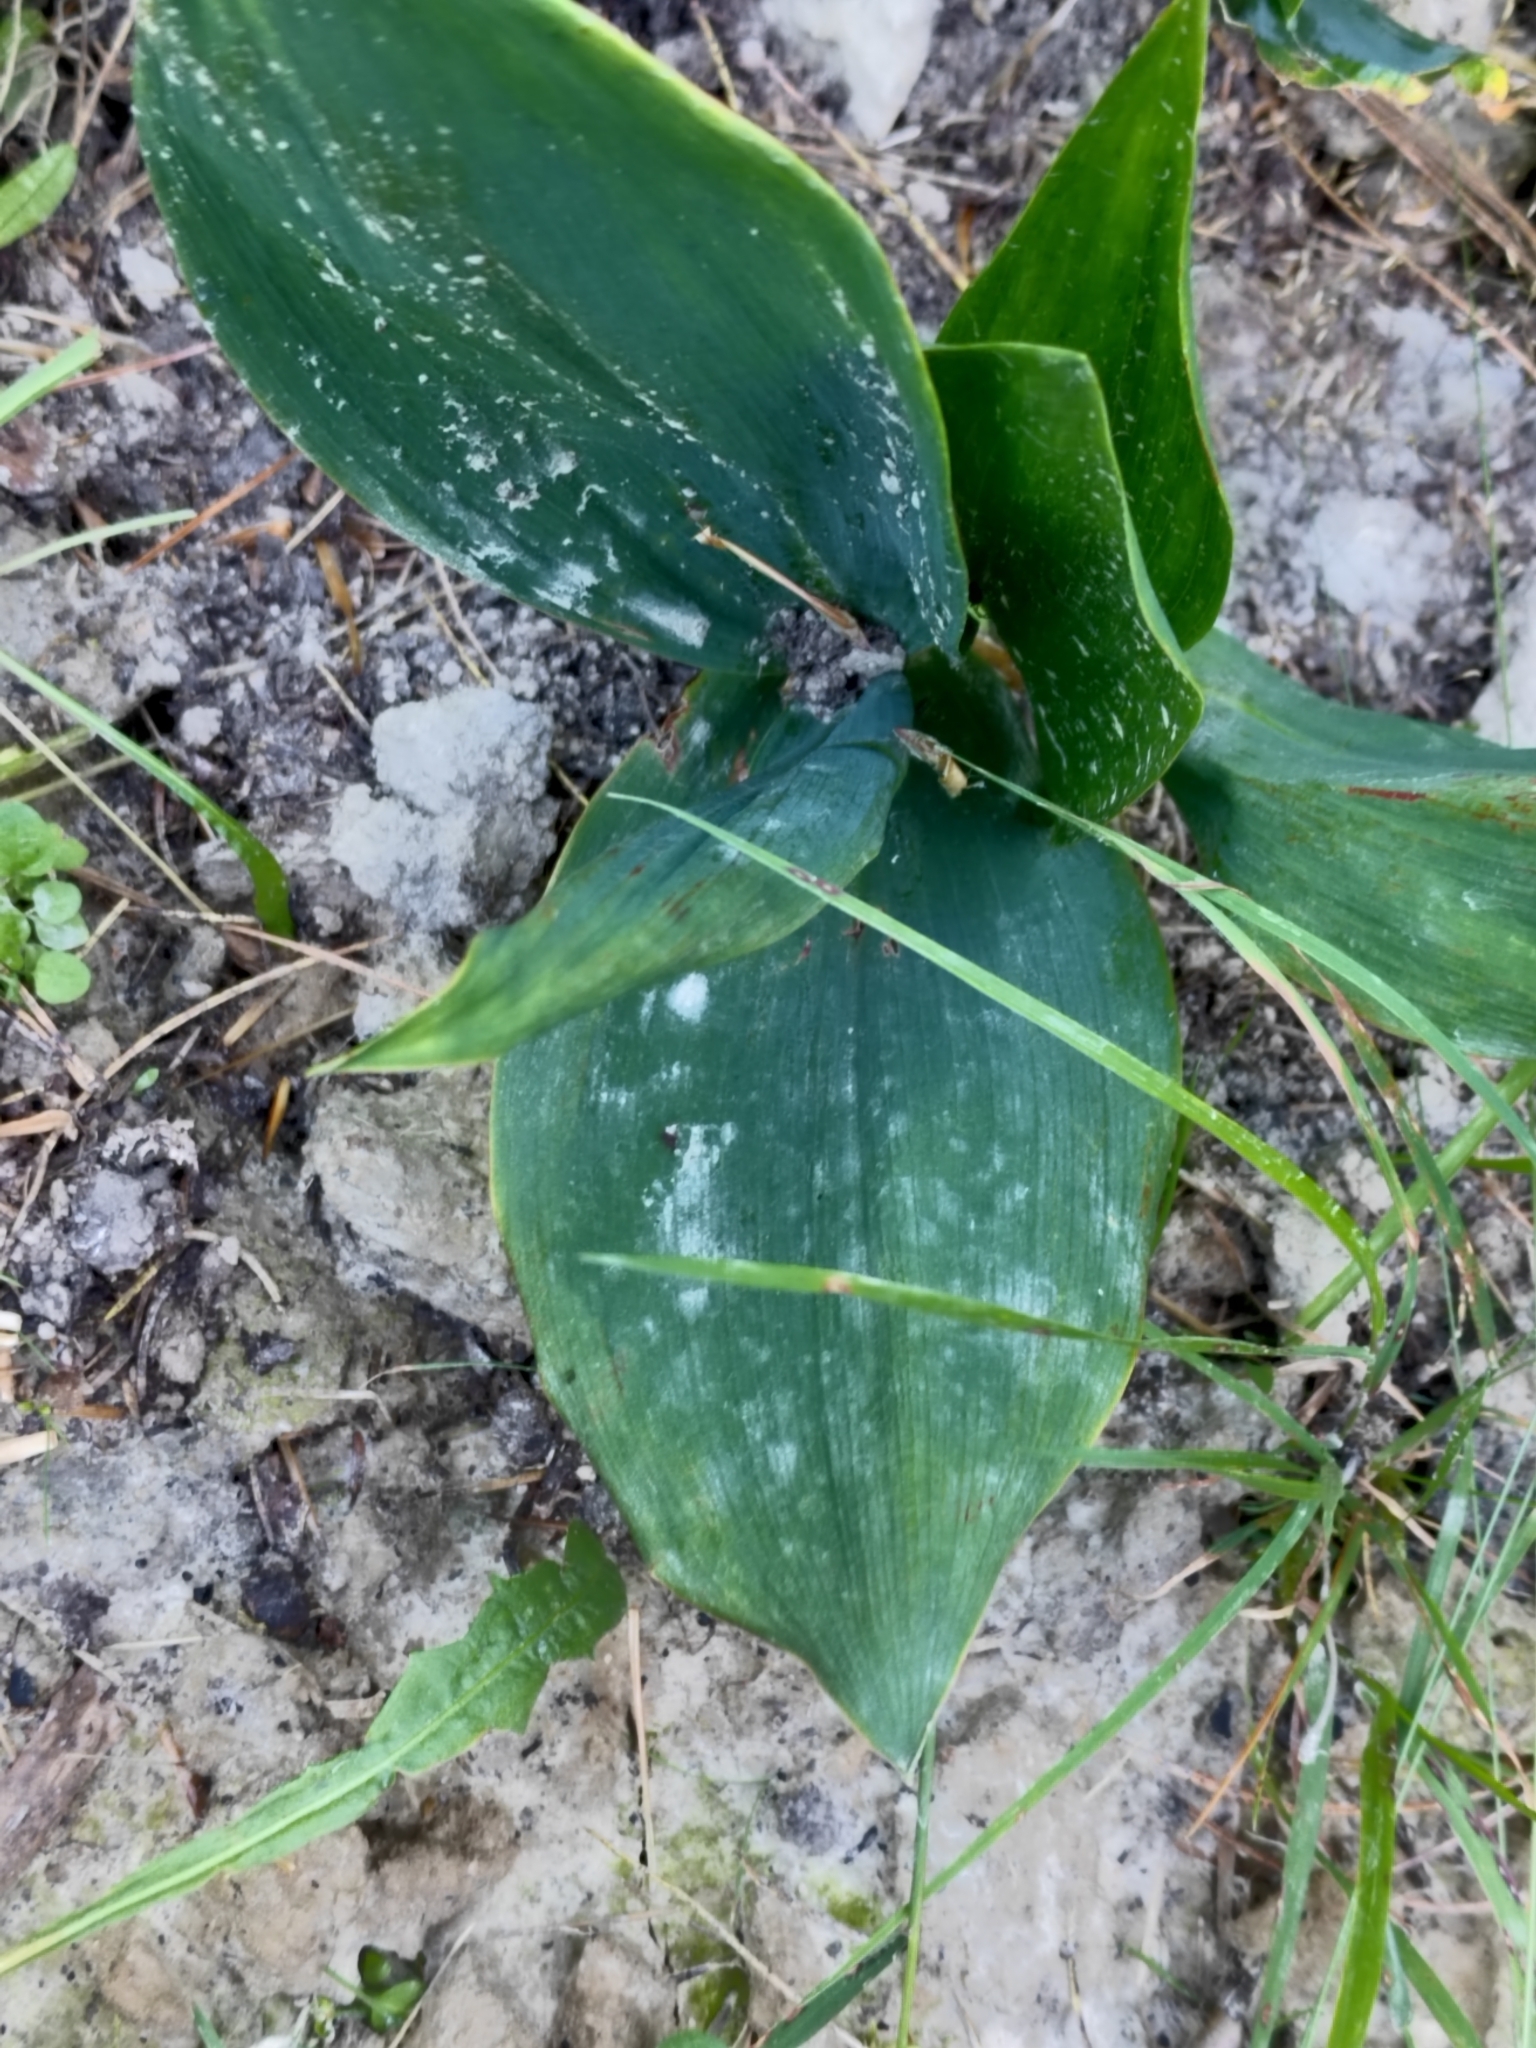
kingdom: Plantae
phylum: Tracheophyta
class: Liliopsida
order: Asparagales
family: Asparagaceae
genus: Convallaria
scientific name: Convallaria majalis
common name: Lily-of-the-valley
